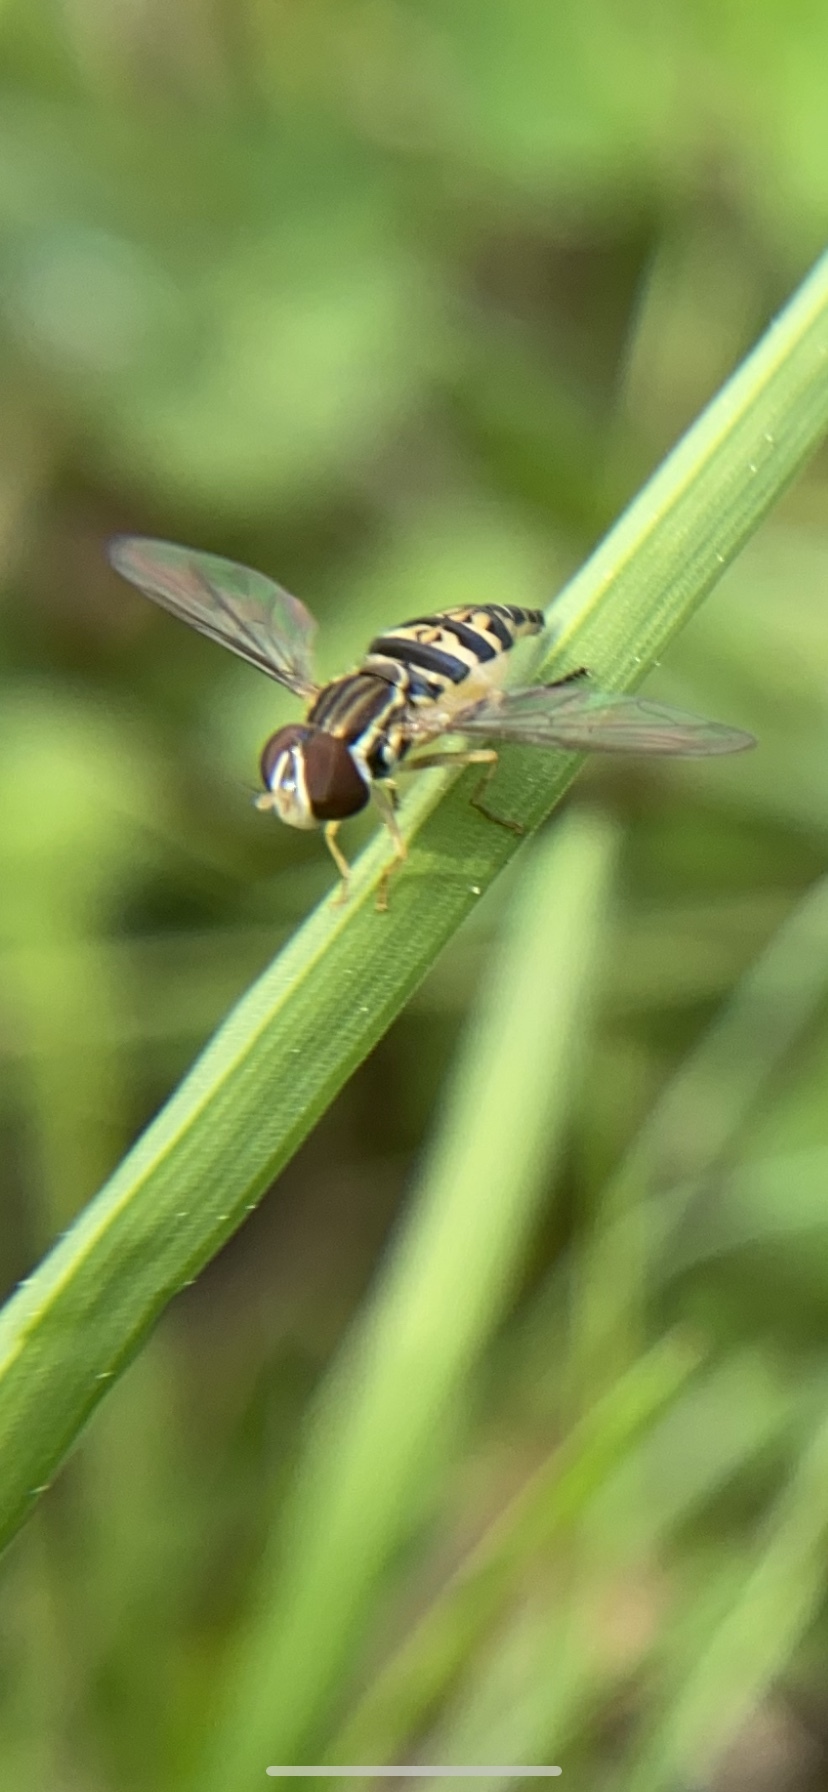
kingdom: Animalia
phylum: Arthropoda
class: Insecta
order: Diptera
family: Syrphidae
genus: Toxomerus
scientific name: Toxomerus geminatus
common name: Eastern calligrapher
